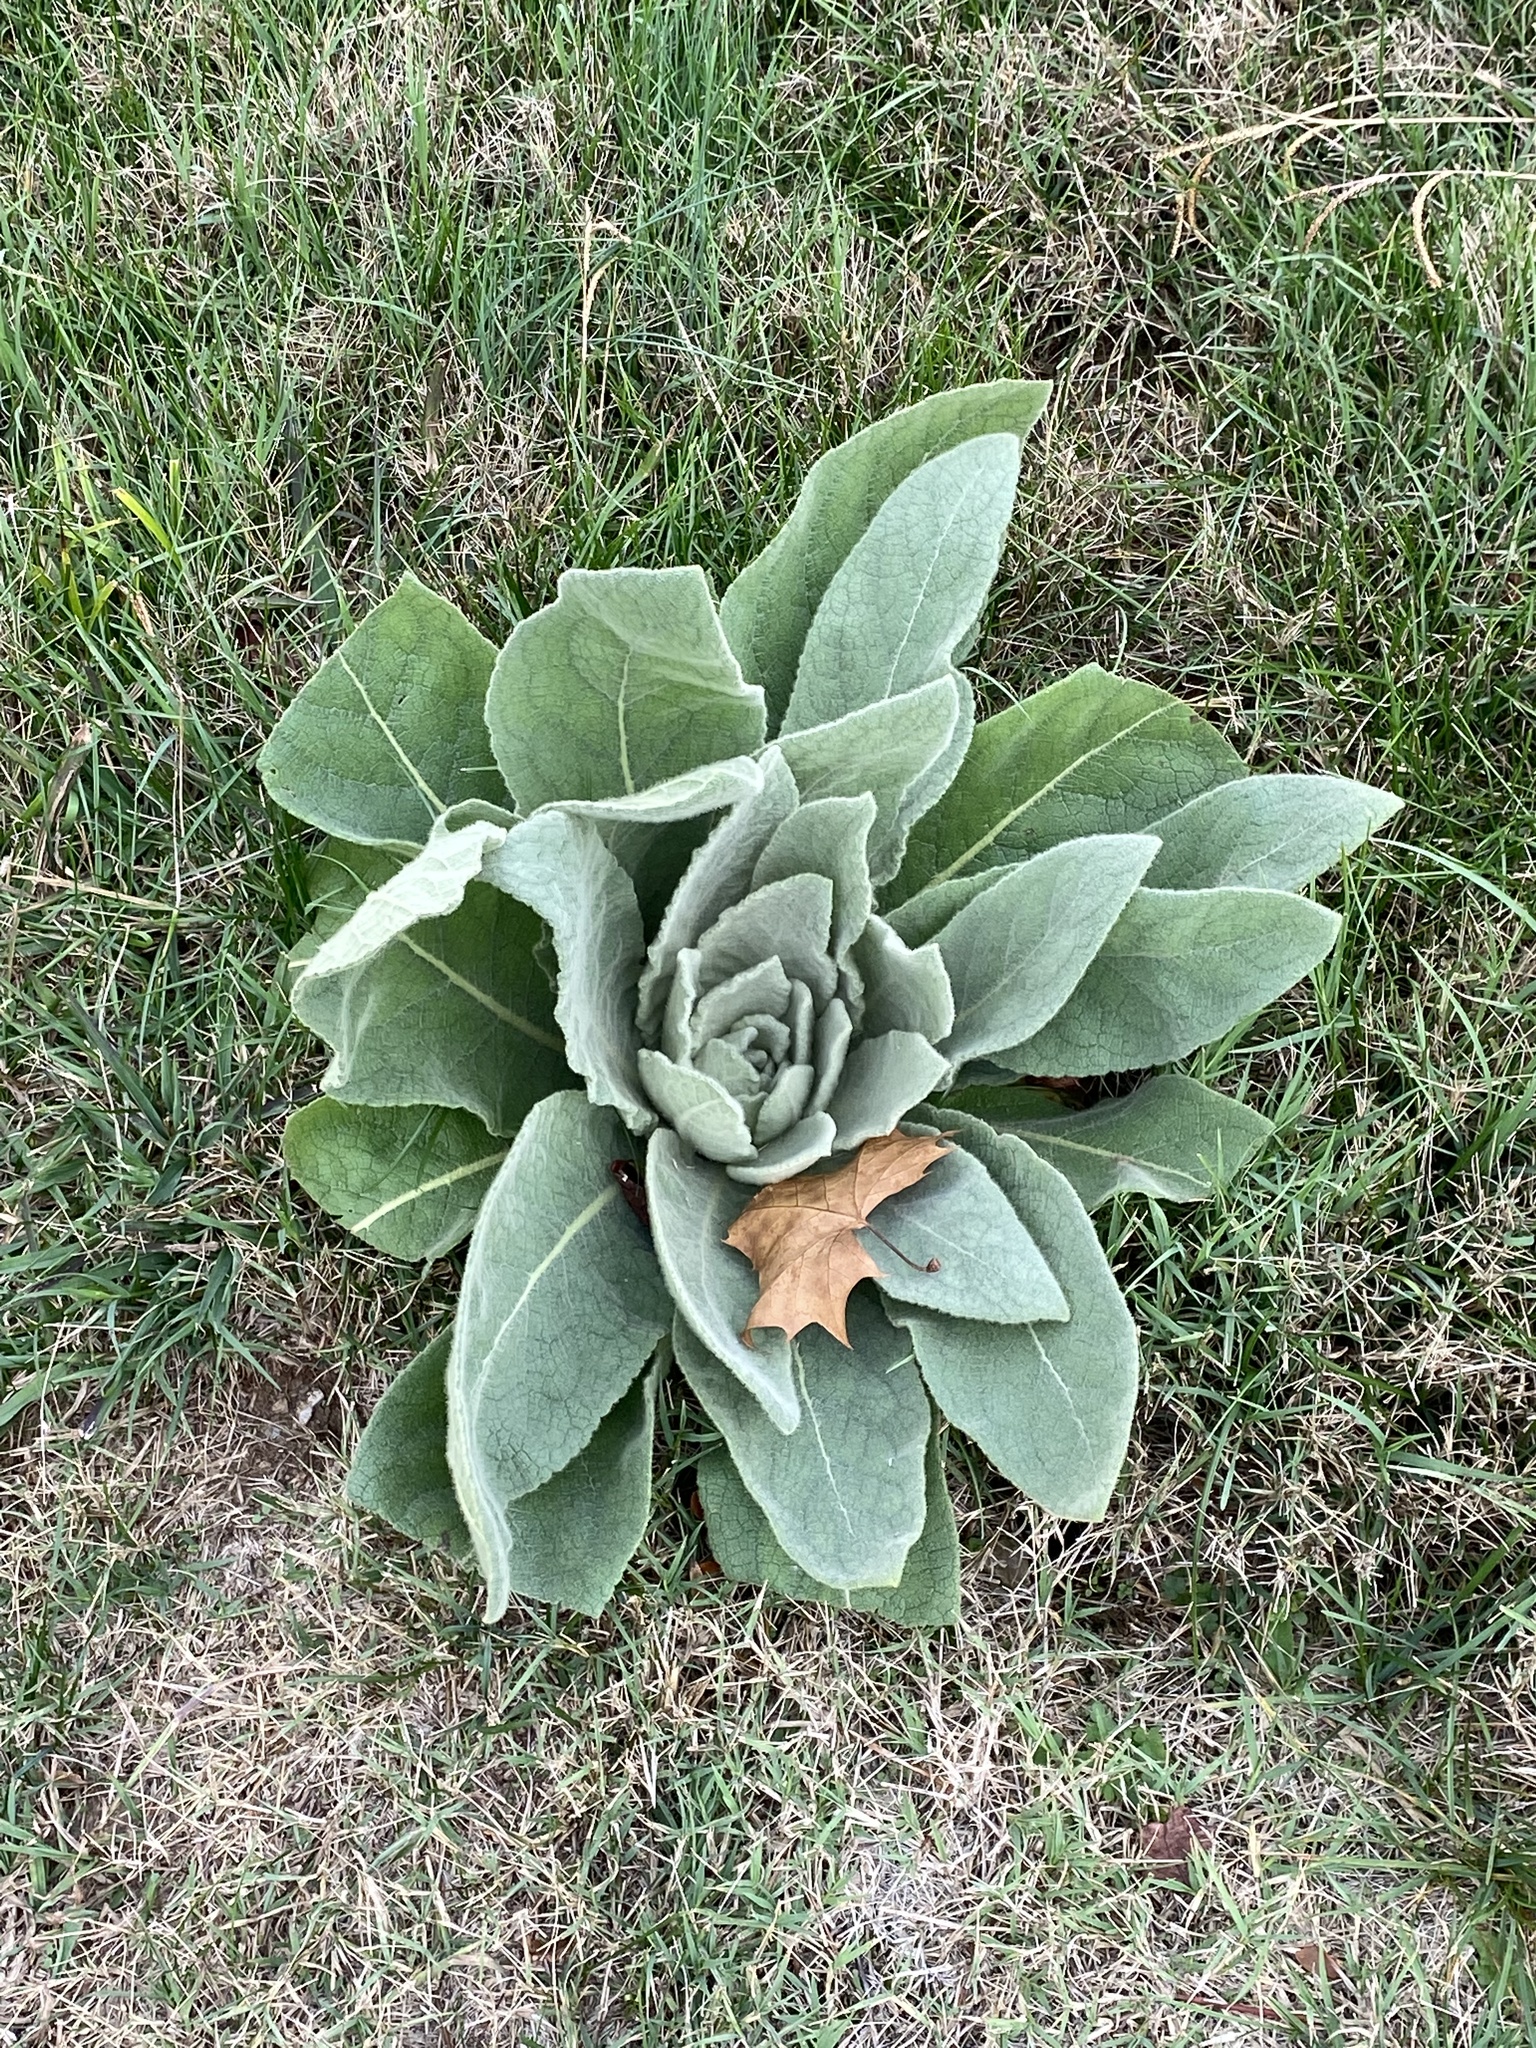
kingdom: Plantae
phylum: Tracheophyta
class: Magnoliopsida
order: Lamiales
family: Scrophulariaceae
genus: Verbascum
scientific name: Verbascum thapsus
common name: Common mullein
